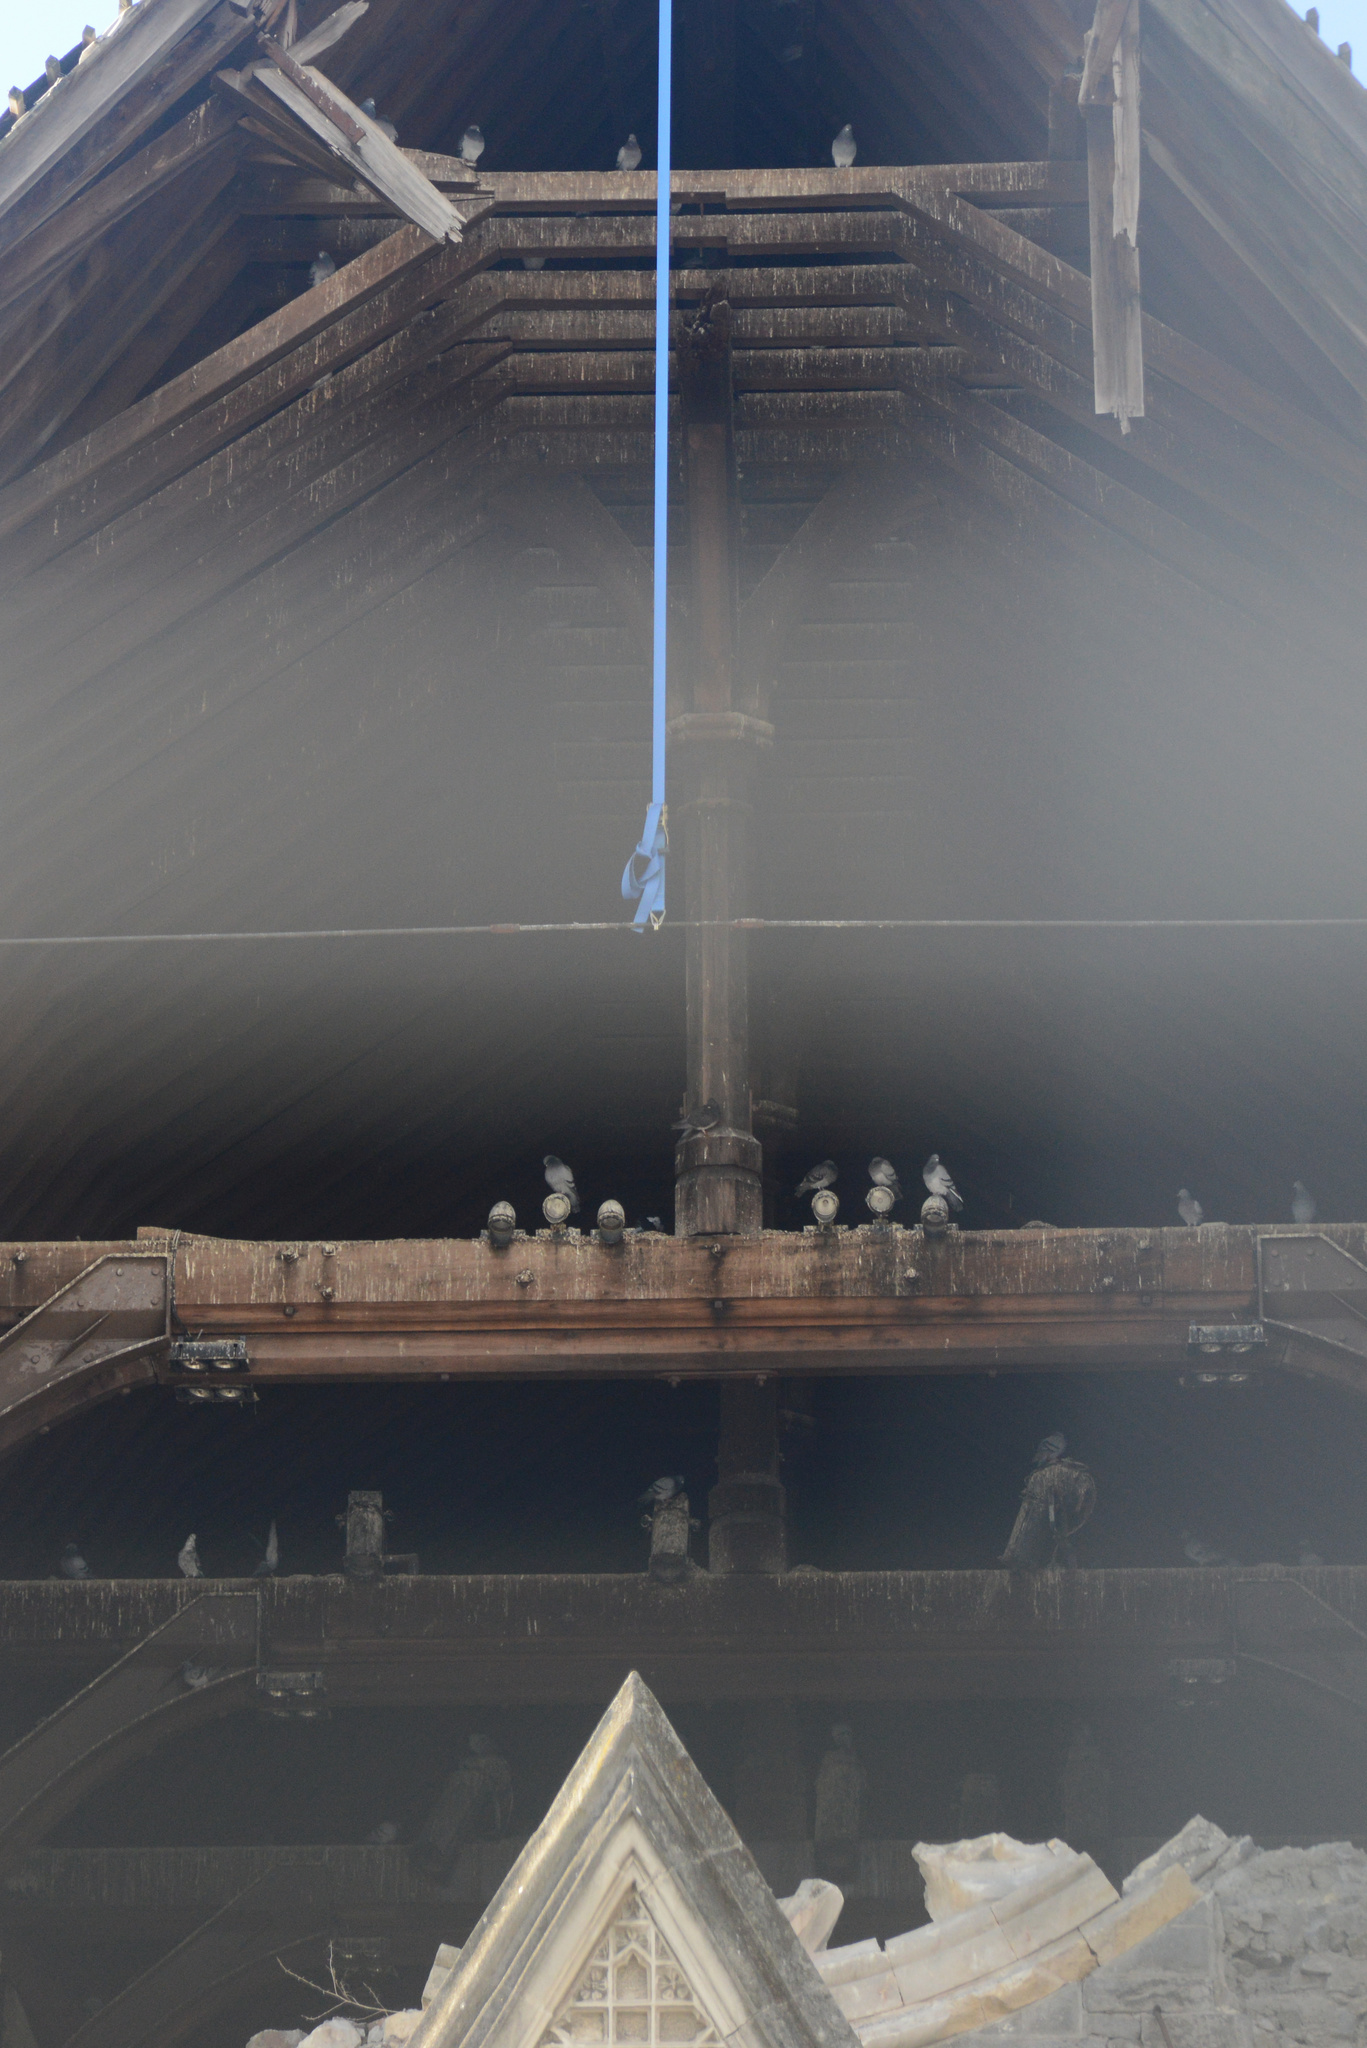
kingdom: Animalia
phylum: Chordata
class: Aves
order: Columbiformes
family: Columbidae
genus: Columba
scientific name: Columba livia
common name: Rock pigeon
